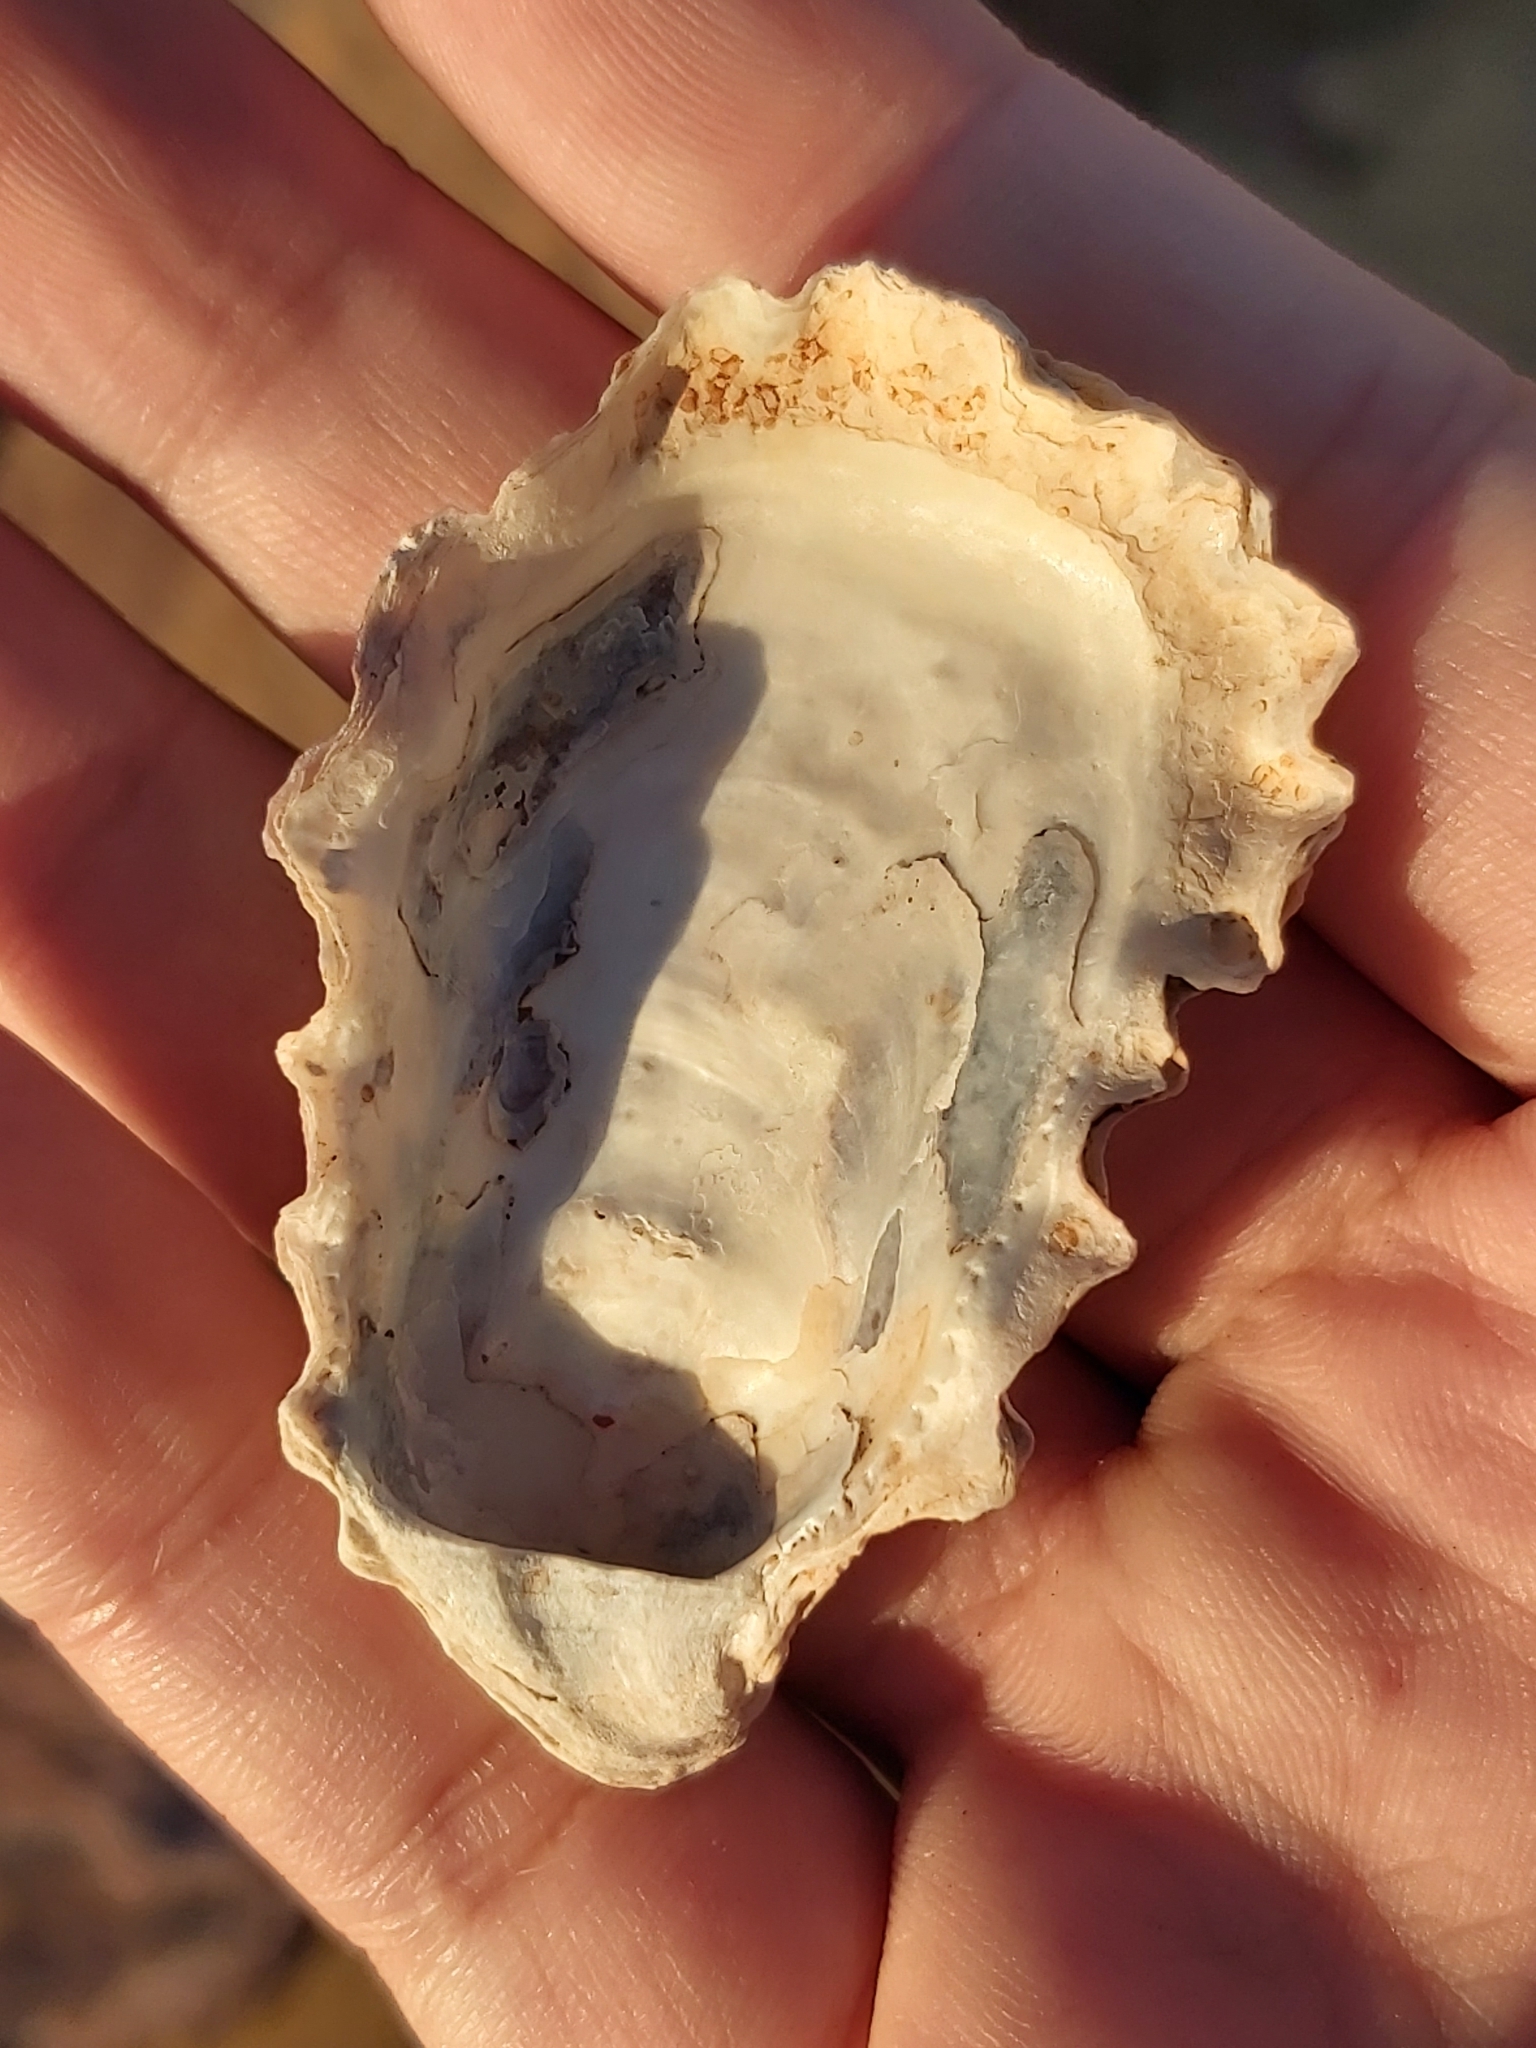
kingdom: Animalia
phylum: Mollusca
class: Bivalvia
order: Ostreida
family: Ostreidae
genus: Saccostrea
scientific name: Saccostrea glomerata
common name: Sydney cupped oyster
